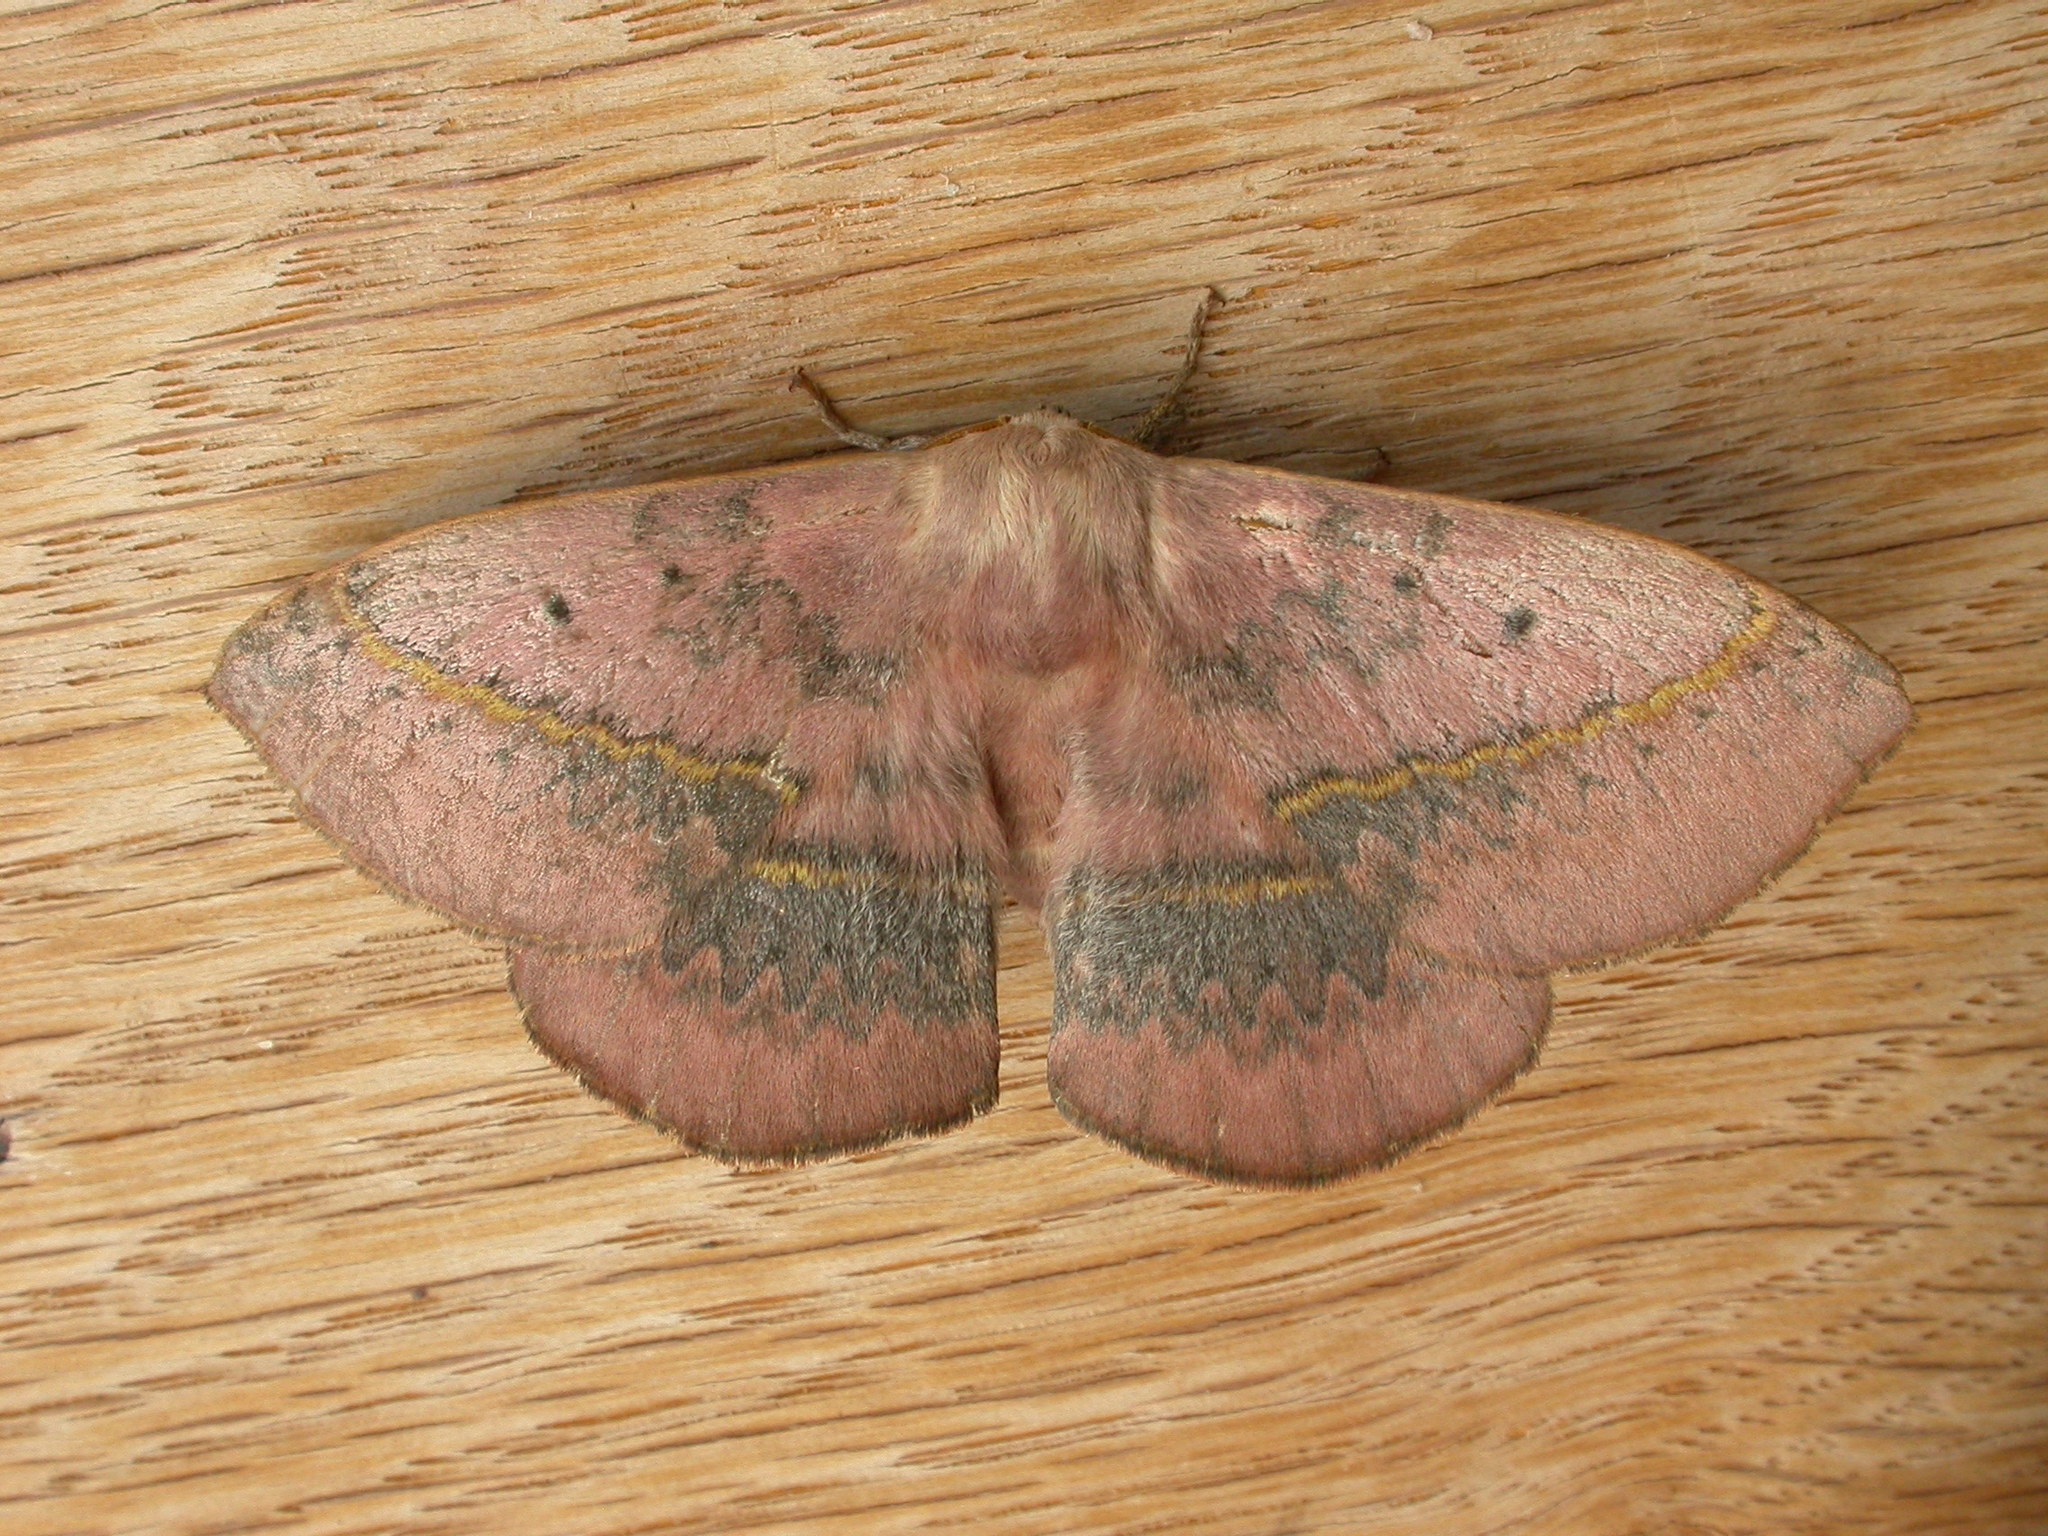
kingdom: Animalia
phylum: Arthropoda
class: Insecta
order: Lepidoptera
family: Anthelidae
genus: Anthela
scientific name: Anthela varia
